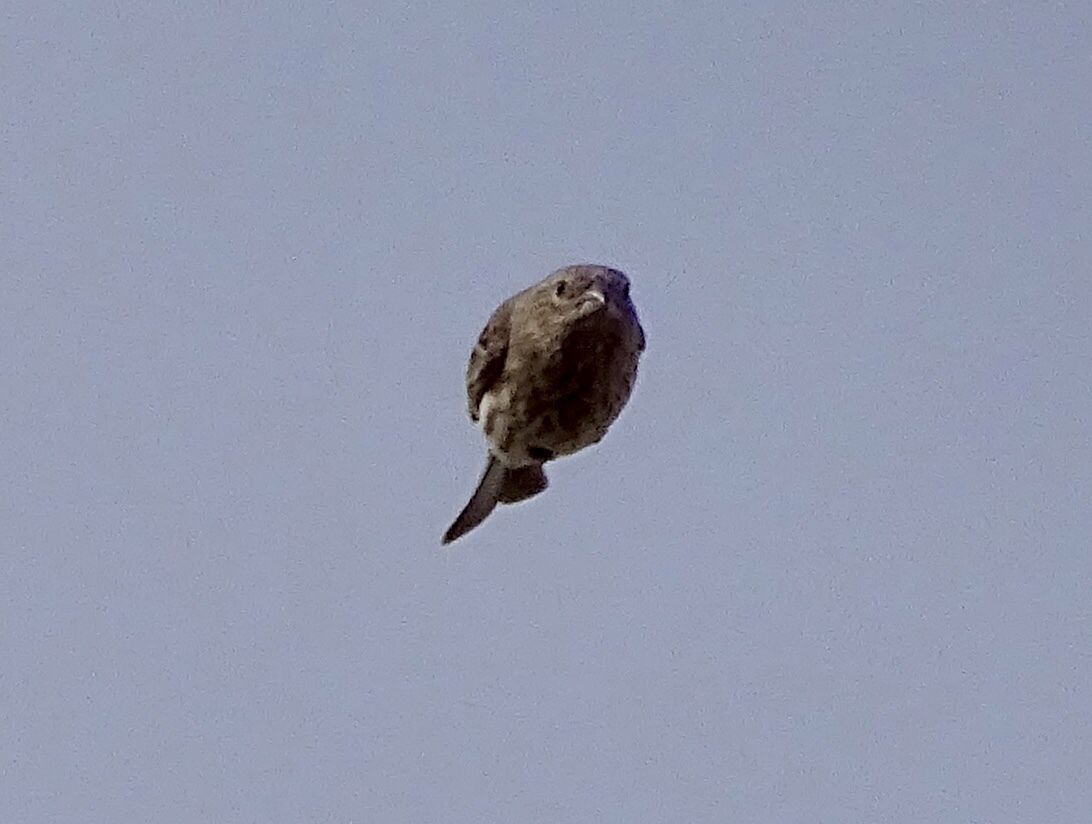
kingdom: Animalia
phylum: Chordata
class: Aves
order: Passeriformes
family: Fringillidae
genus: Haemorhous
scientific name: Haemorhous mexicanus
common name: House finch
